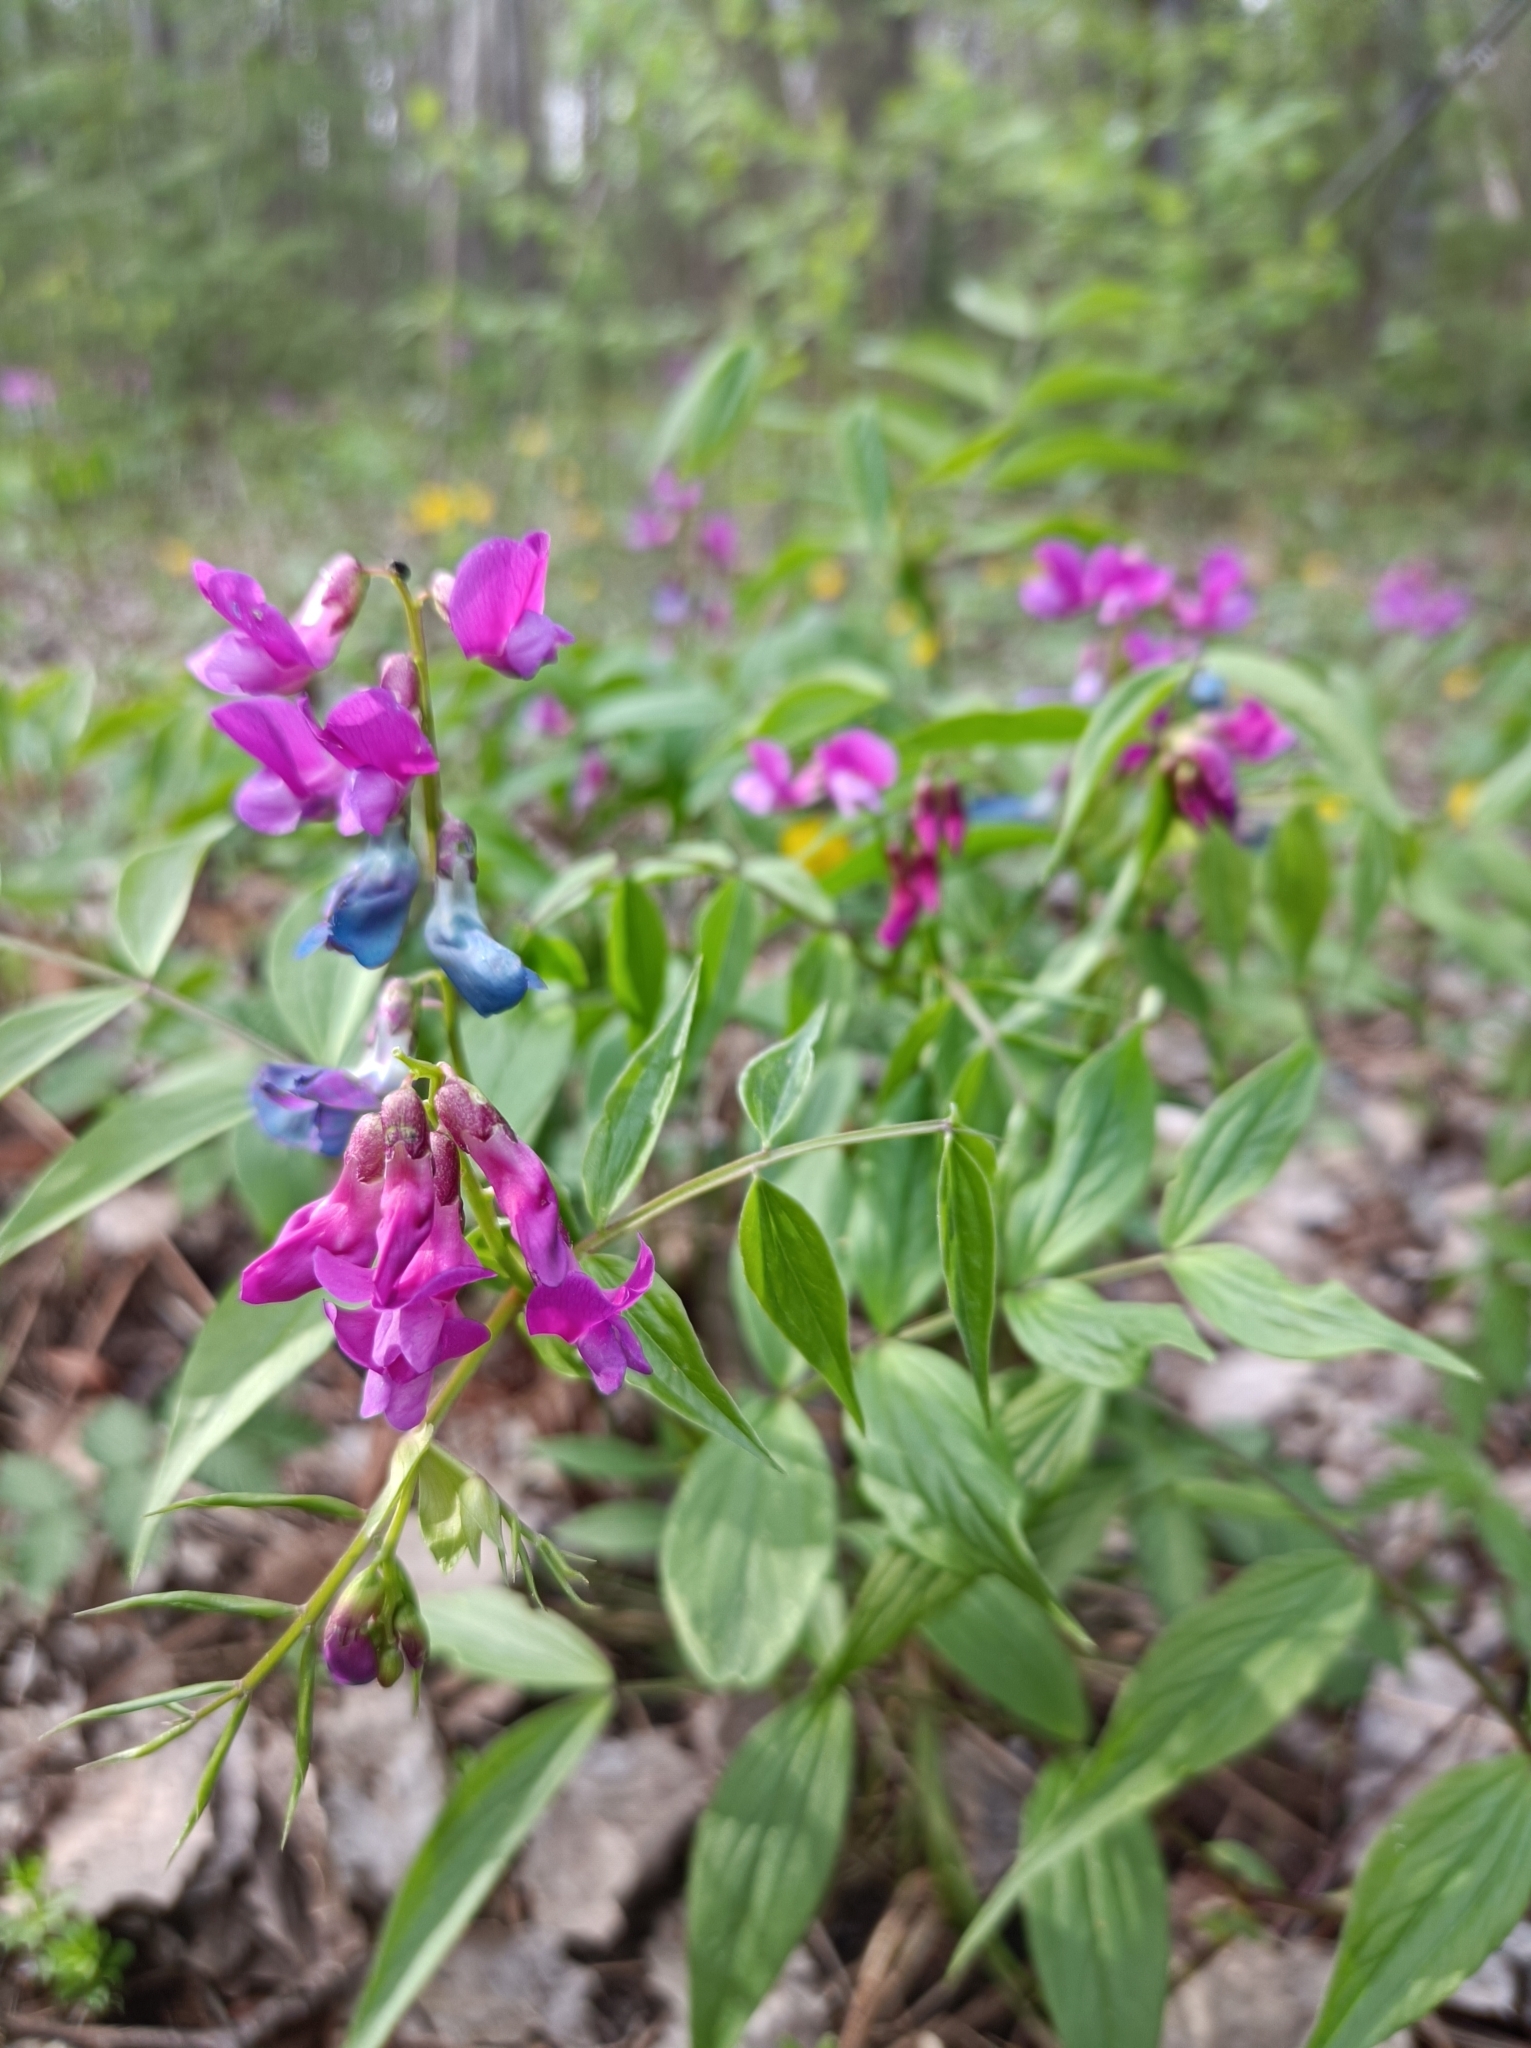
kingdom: Plantae
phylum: Tracheophyta
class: Magnoliopsida
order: Fabales
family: Fabaceae
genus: Lathyrus
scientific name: Lathyrus vernus
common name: Spring pea
